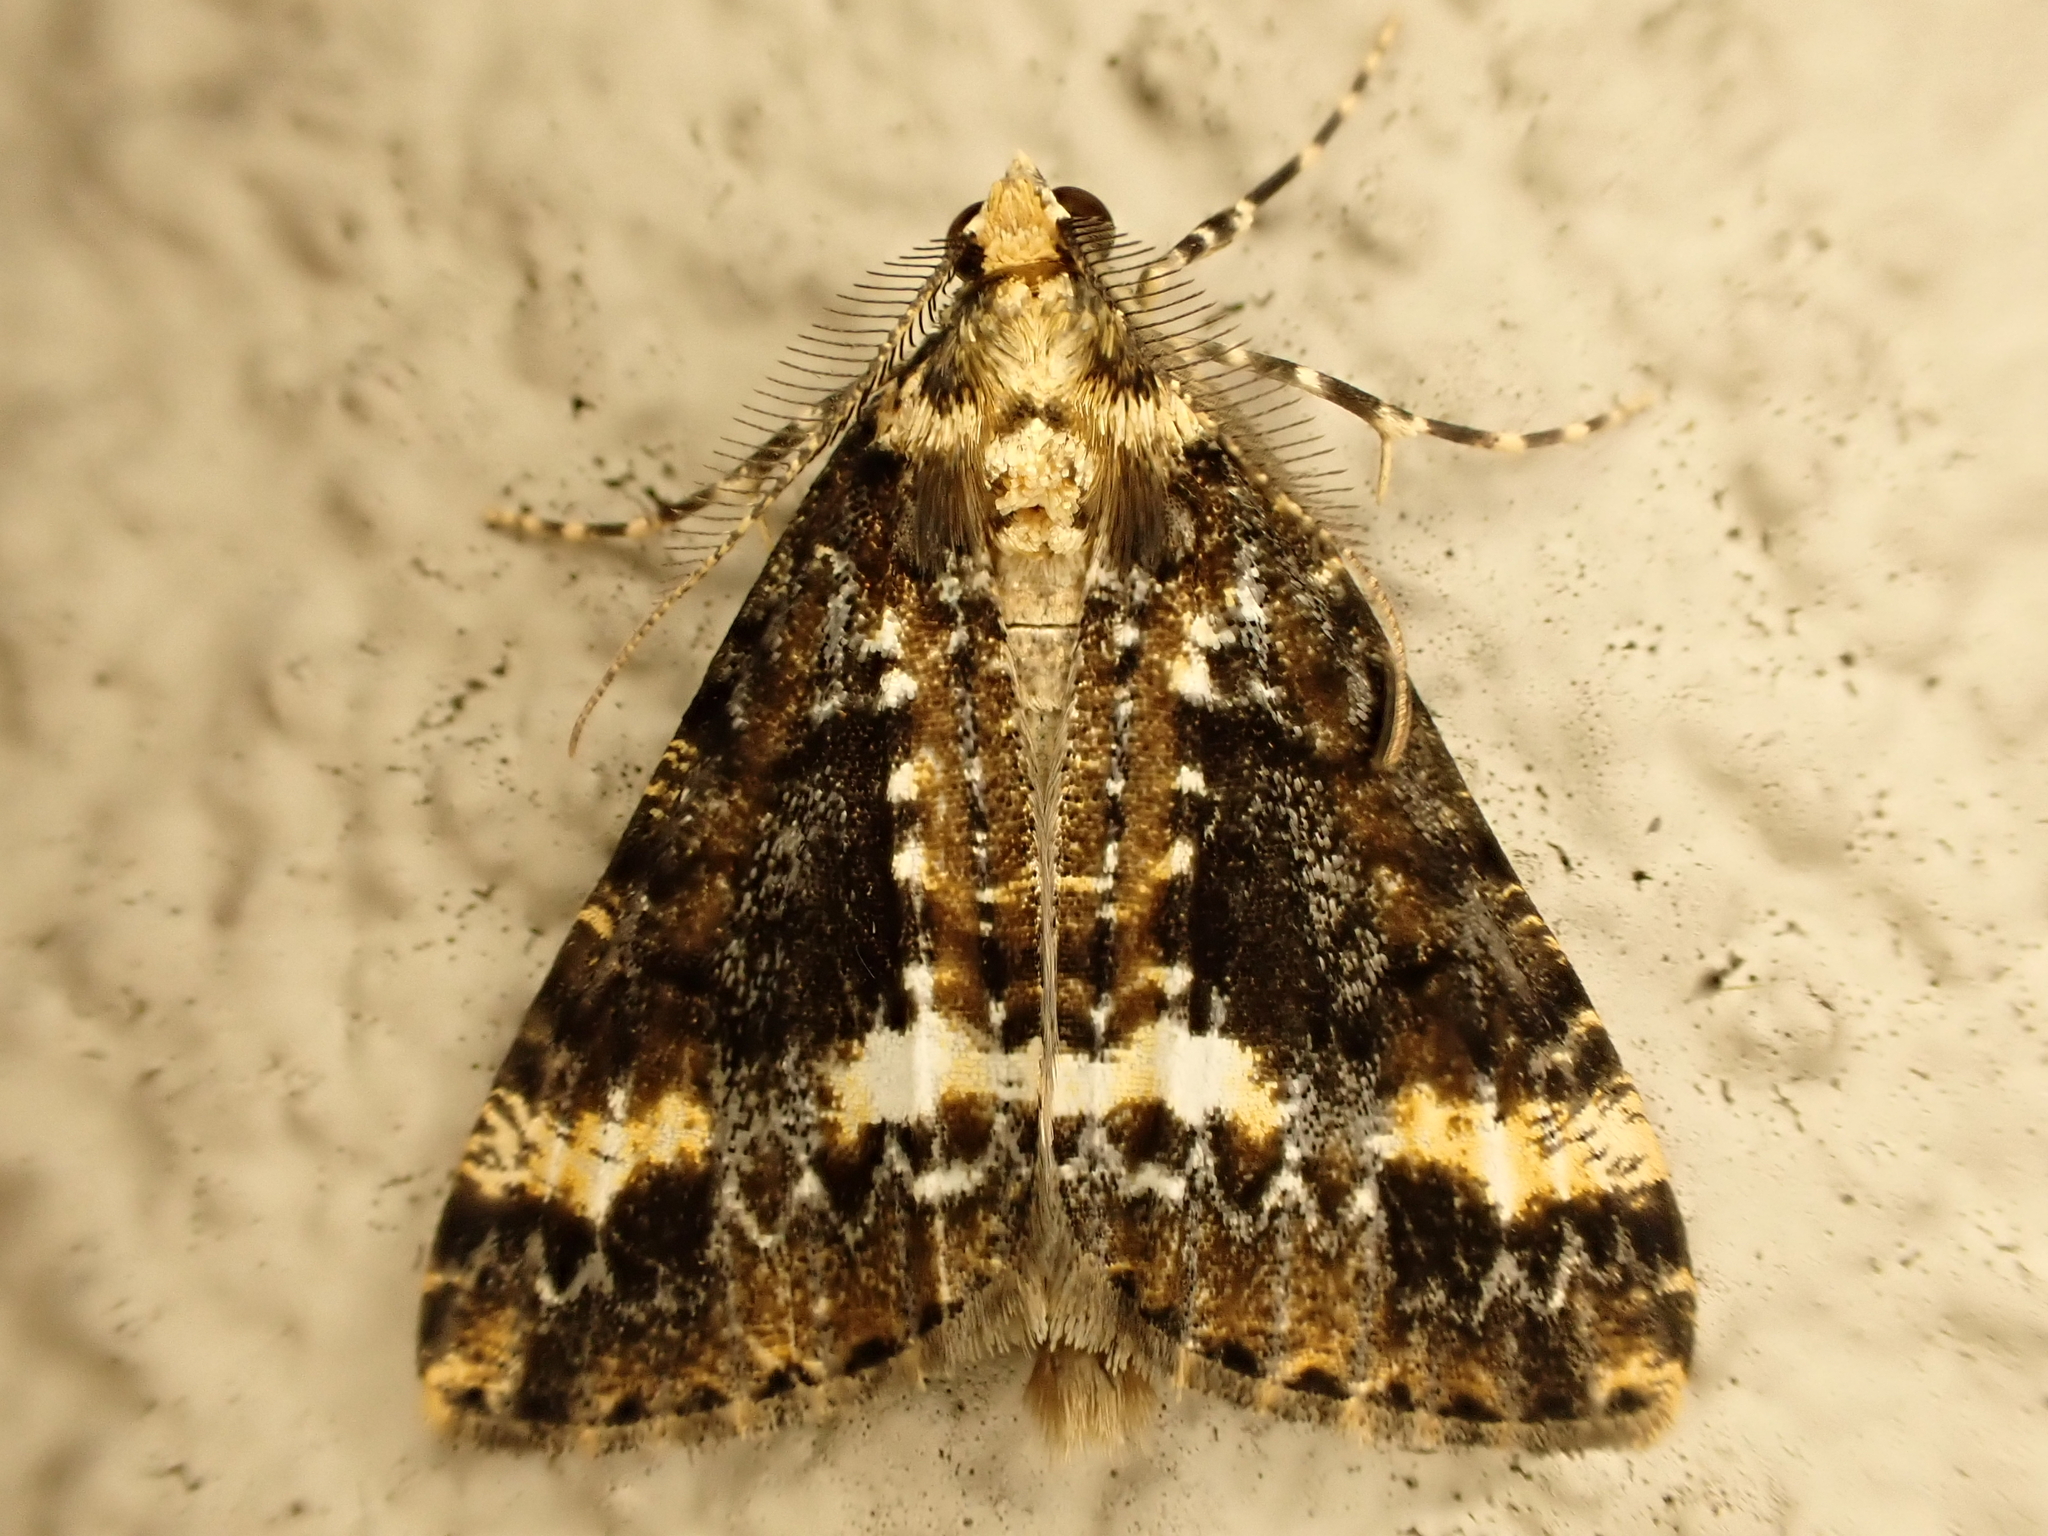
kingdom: Animalia
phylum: Arthropoda
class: Insecta
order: Lepidoptera
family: Geometridae
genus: Pseudocoremia
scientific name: Pseudocoremia leucelaea
